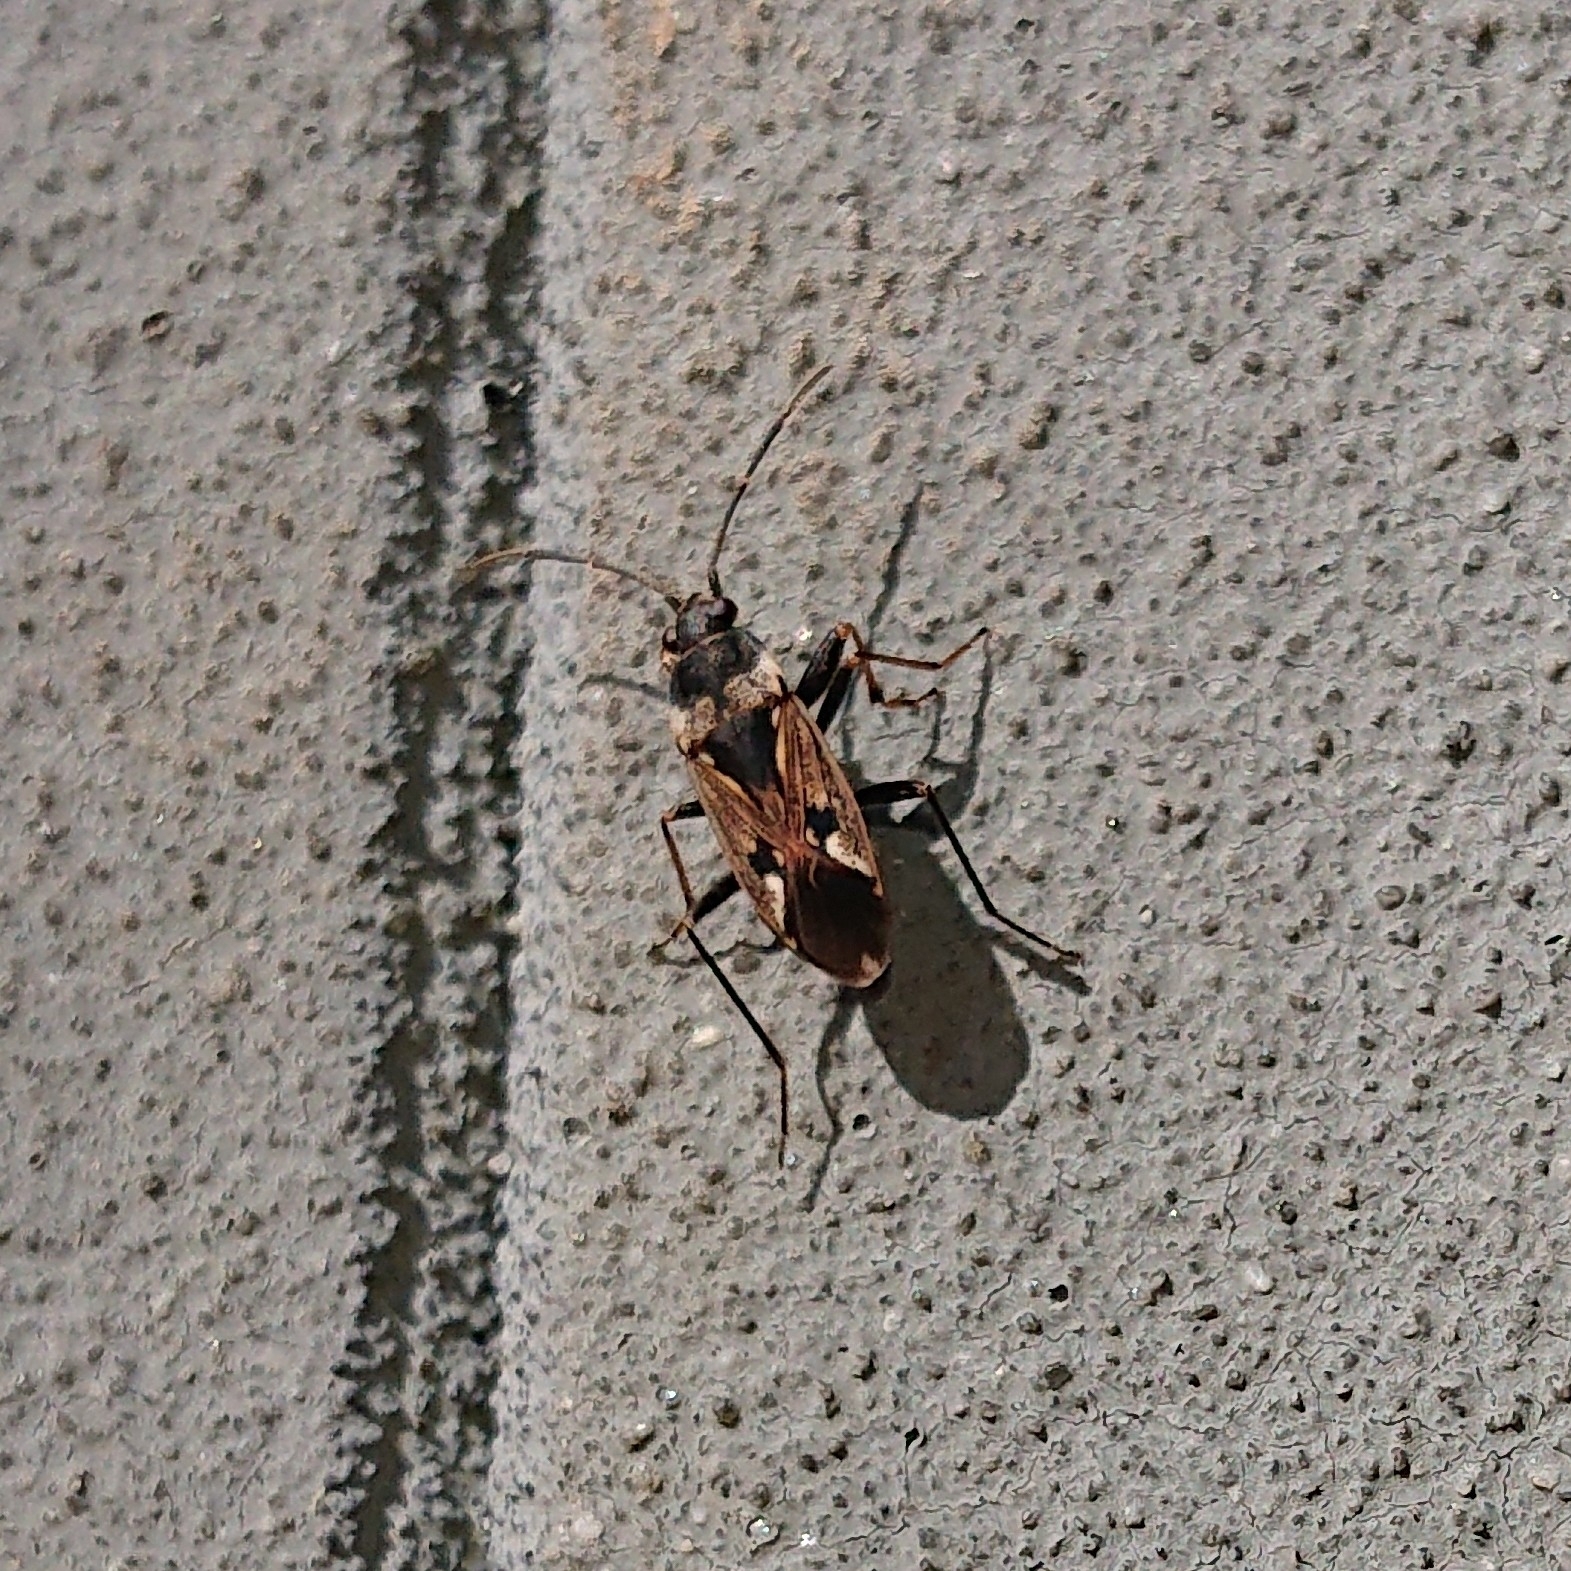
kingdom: Animalia
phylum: Arthropoda
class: Insecta
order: Hemiptera
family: Rhyparochromidae
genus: Rhyparochromus
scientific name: Rhyparochromus vulgaris
